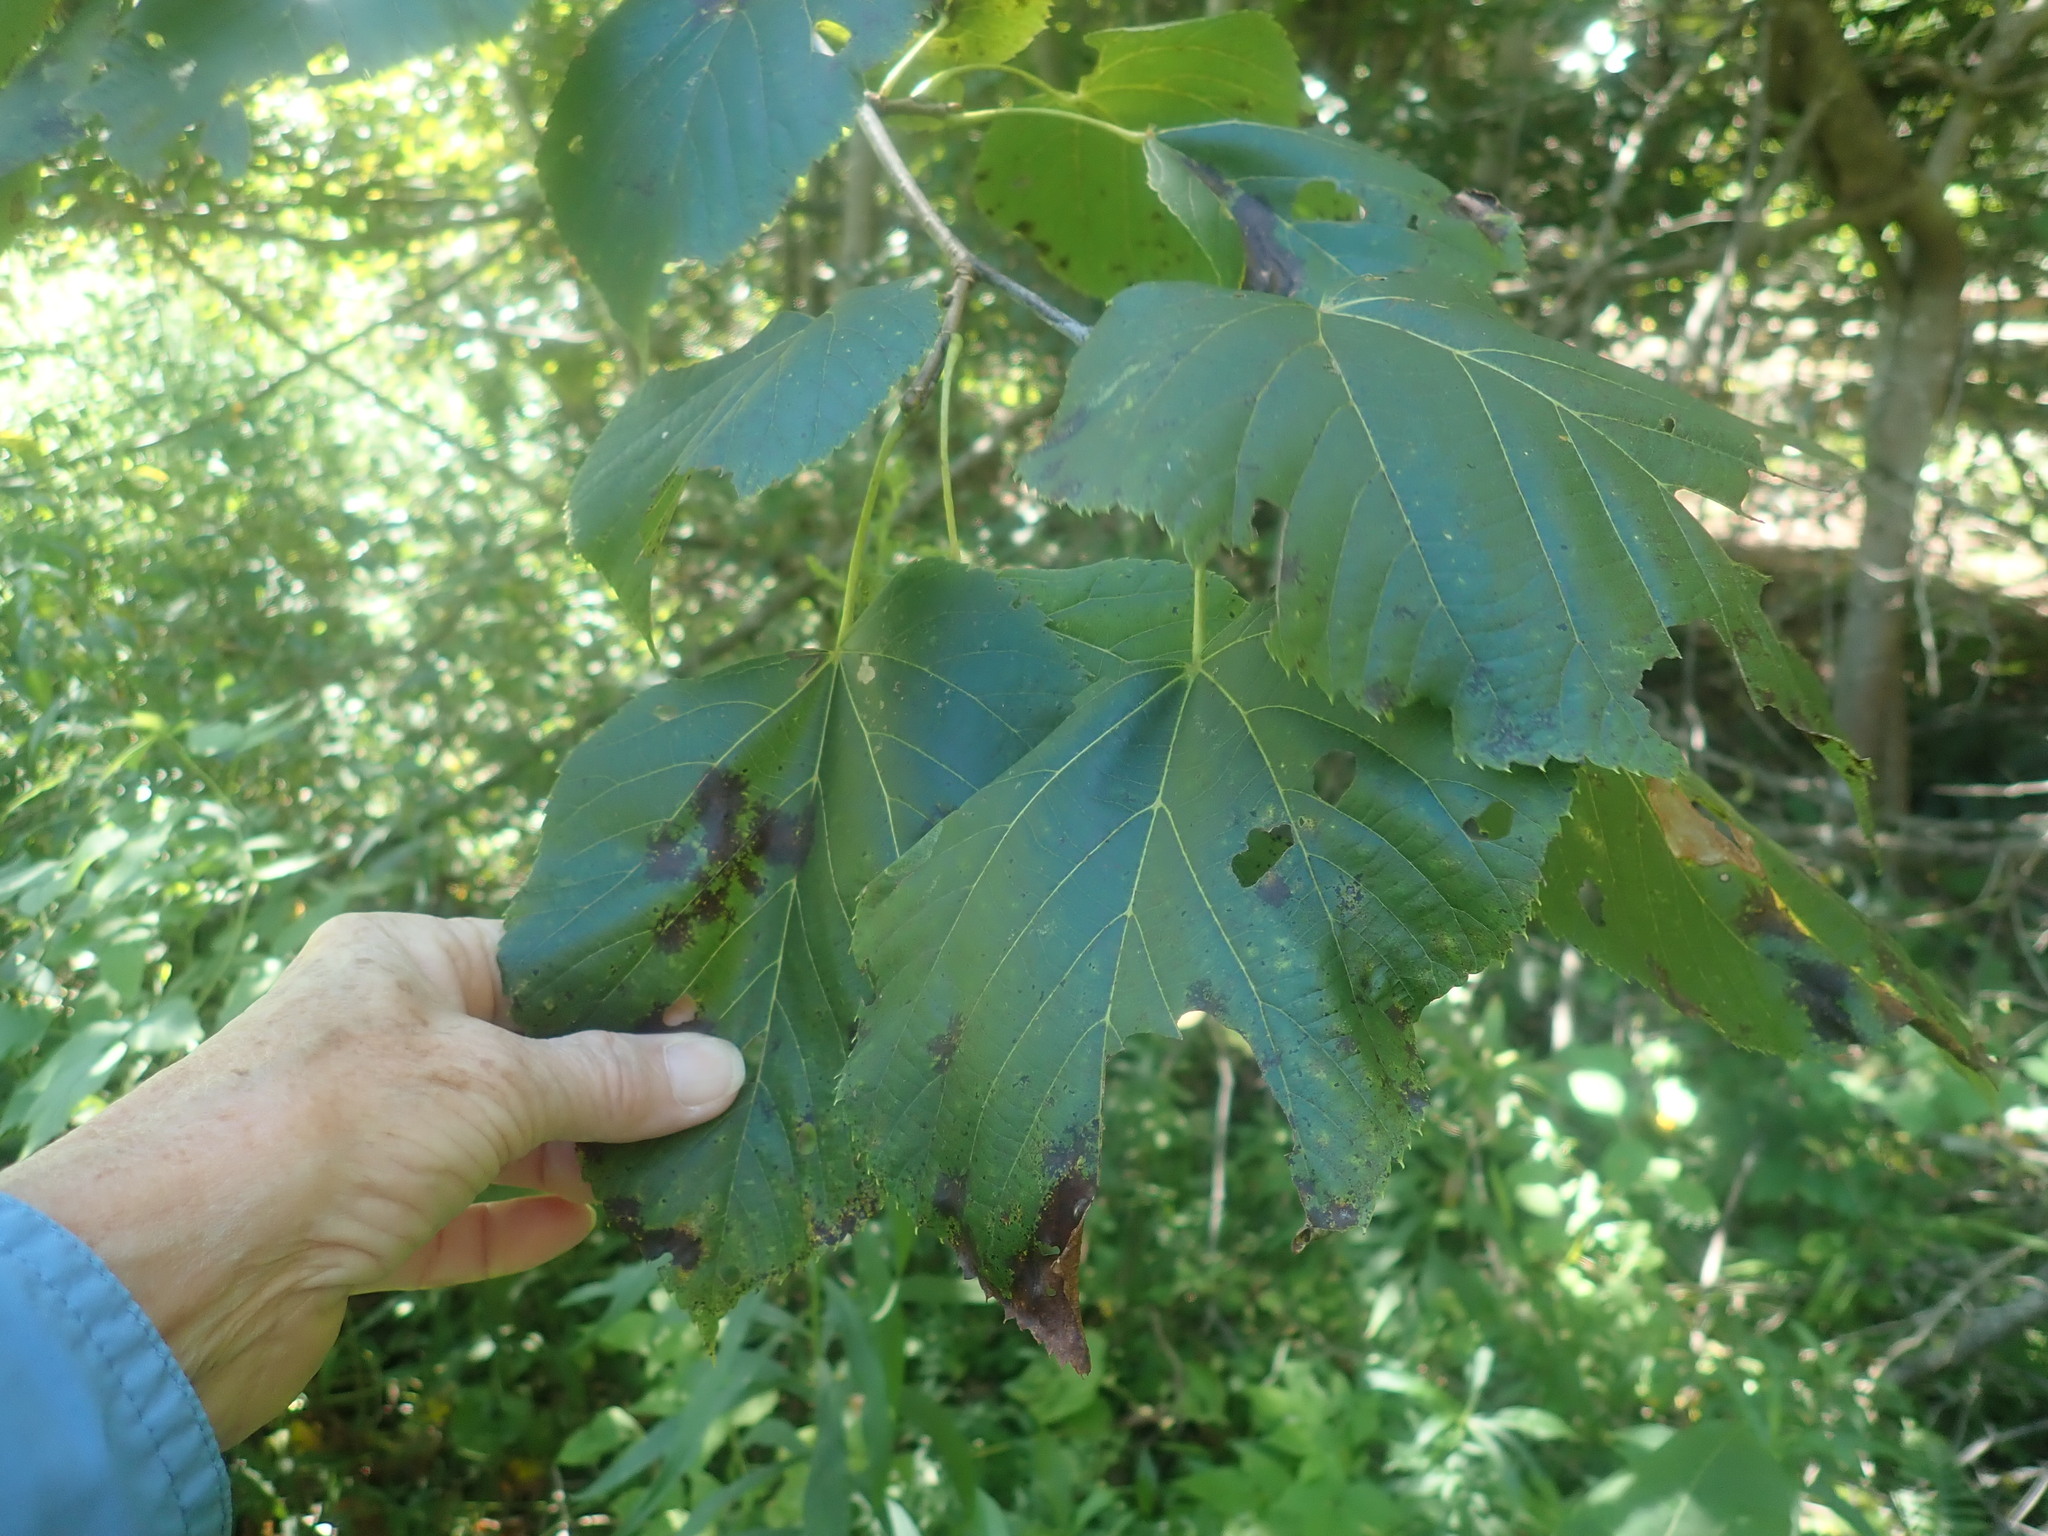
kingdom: Plantae
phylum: Tracheophyta
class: Magnoliopsida
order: Malvales
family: Malvaceae
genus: Tilia
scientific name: Tilia americana
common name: Basswood
